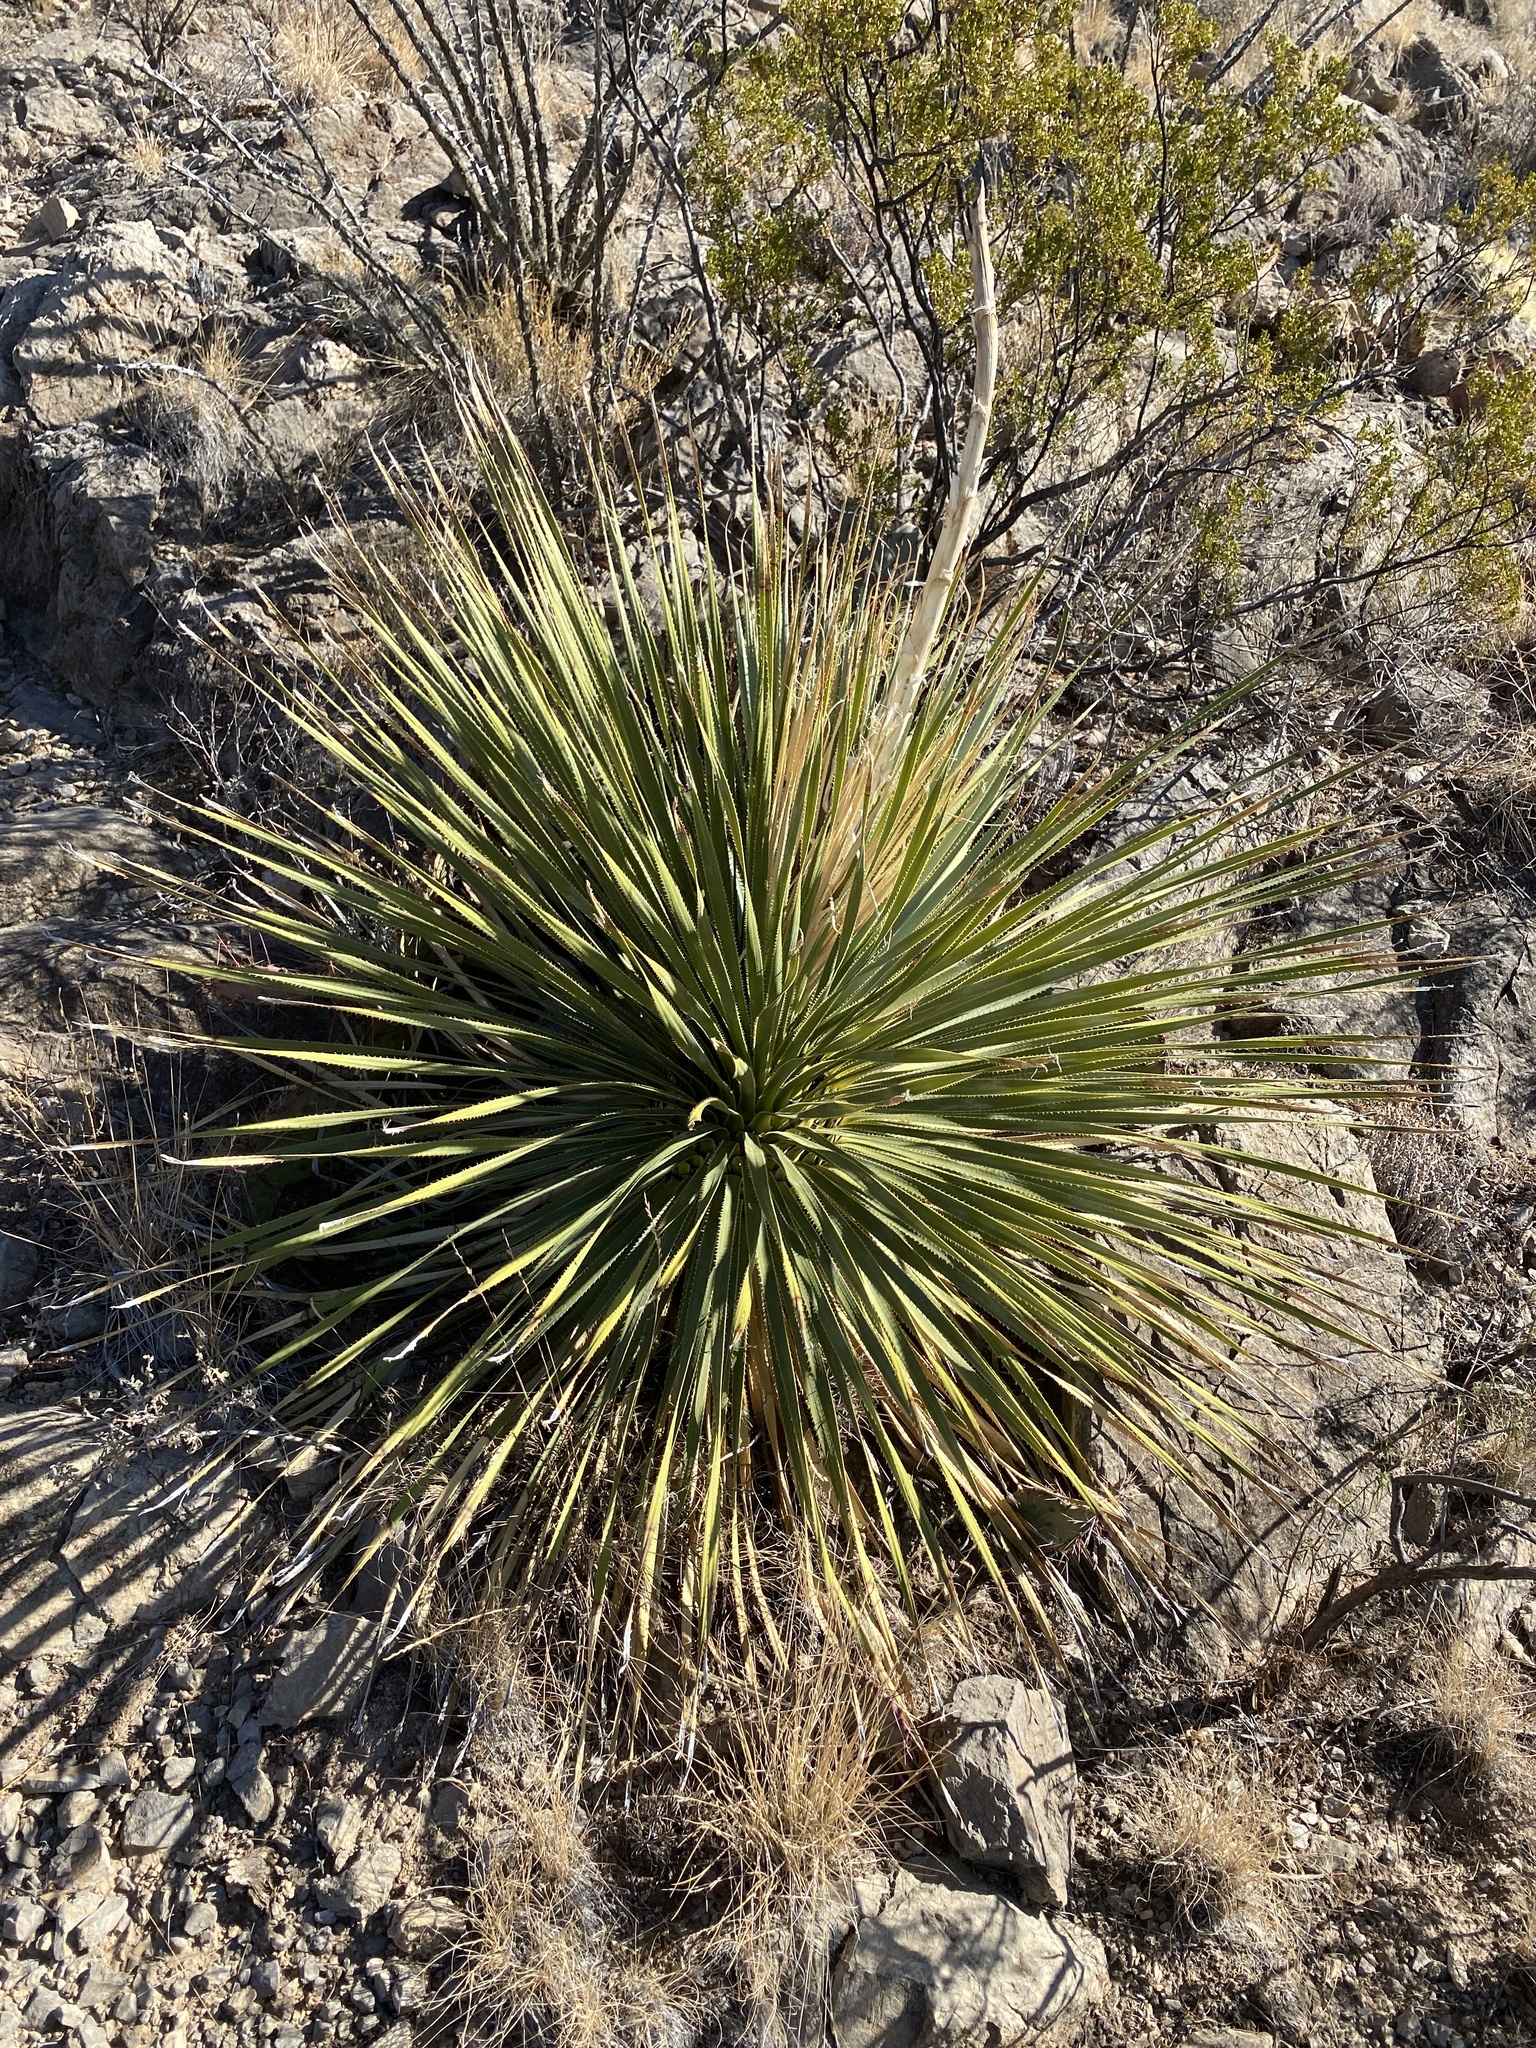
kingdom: Plantae
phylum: Tracheophyta
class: Liliopsida
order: Asparagales
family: Asparagaceae
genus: Dasylirion
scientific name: Dasylirion wheeleri
